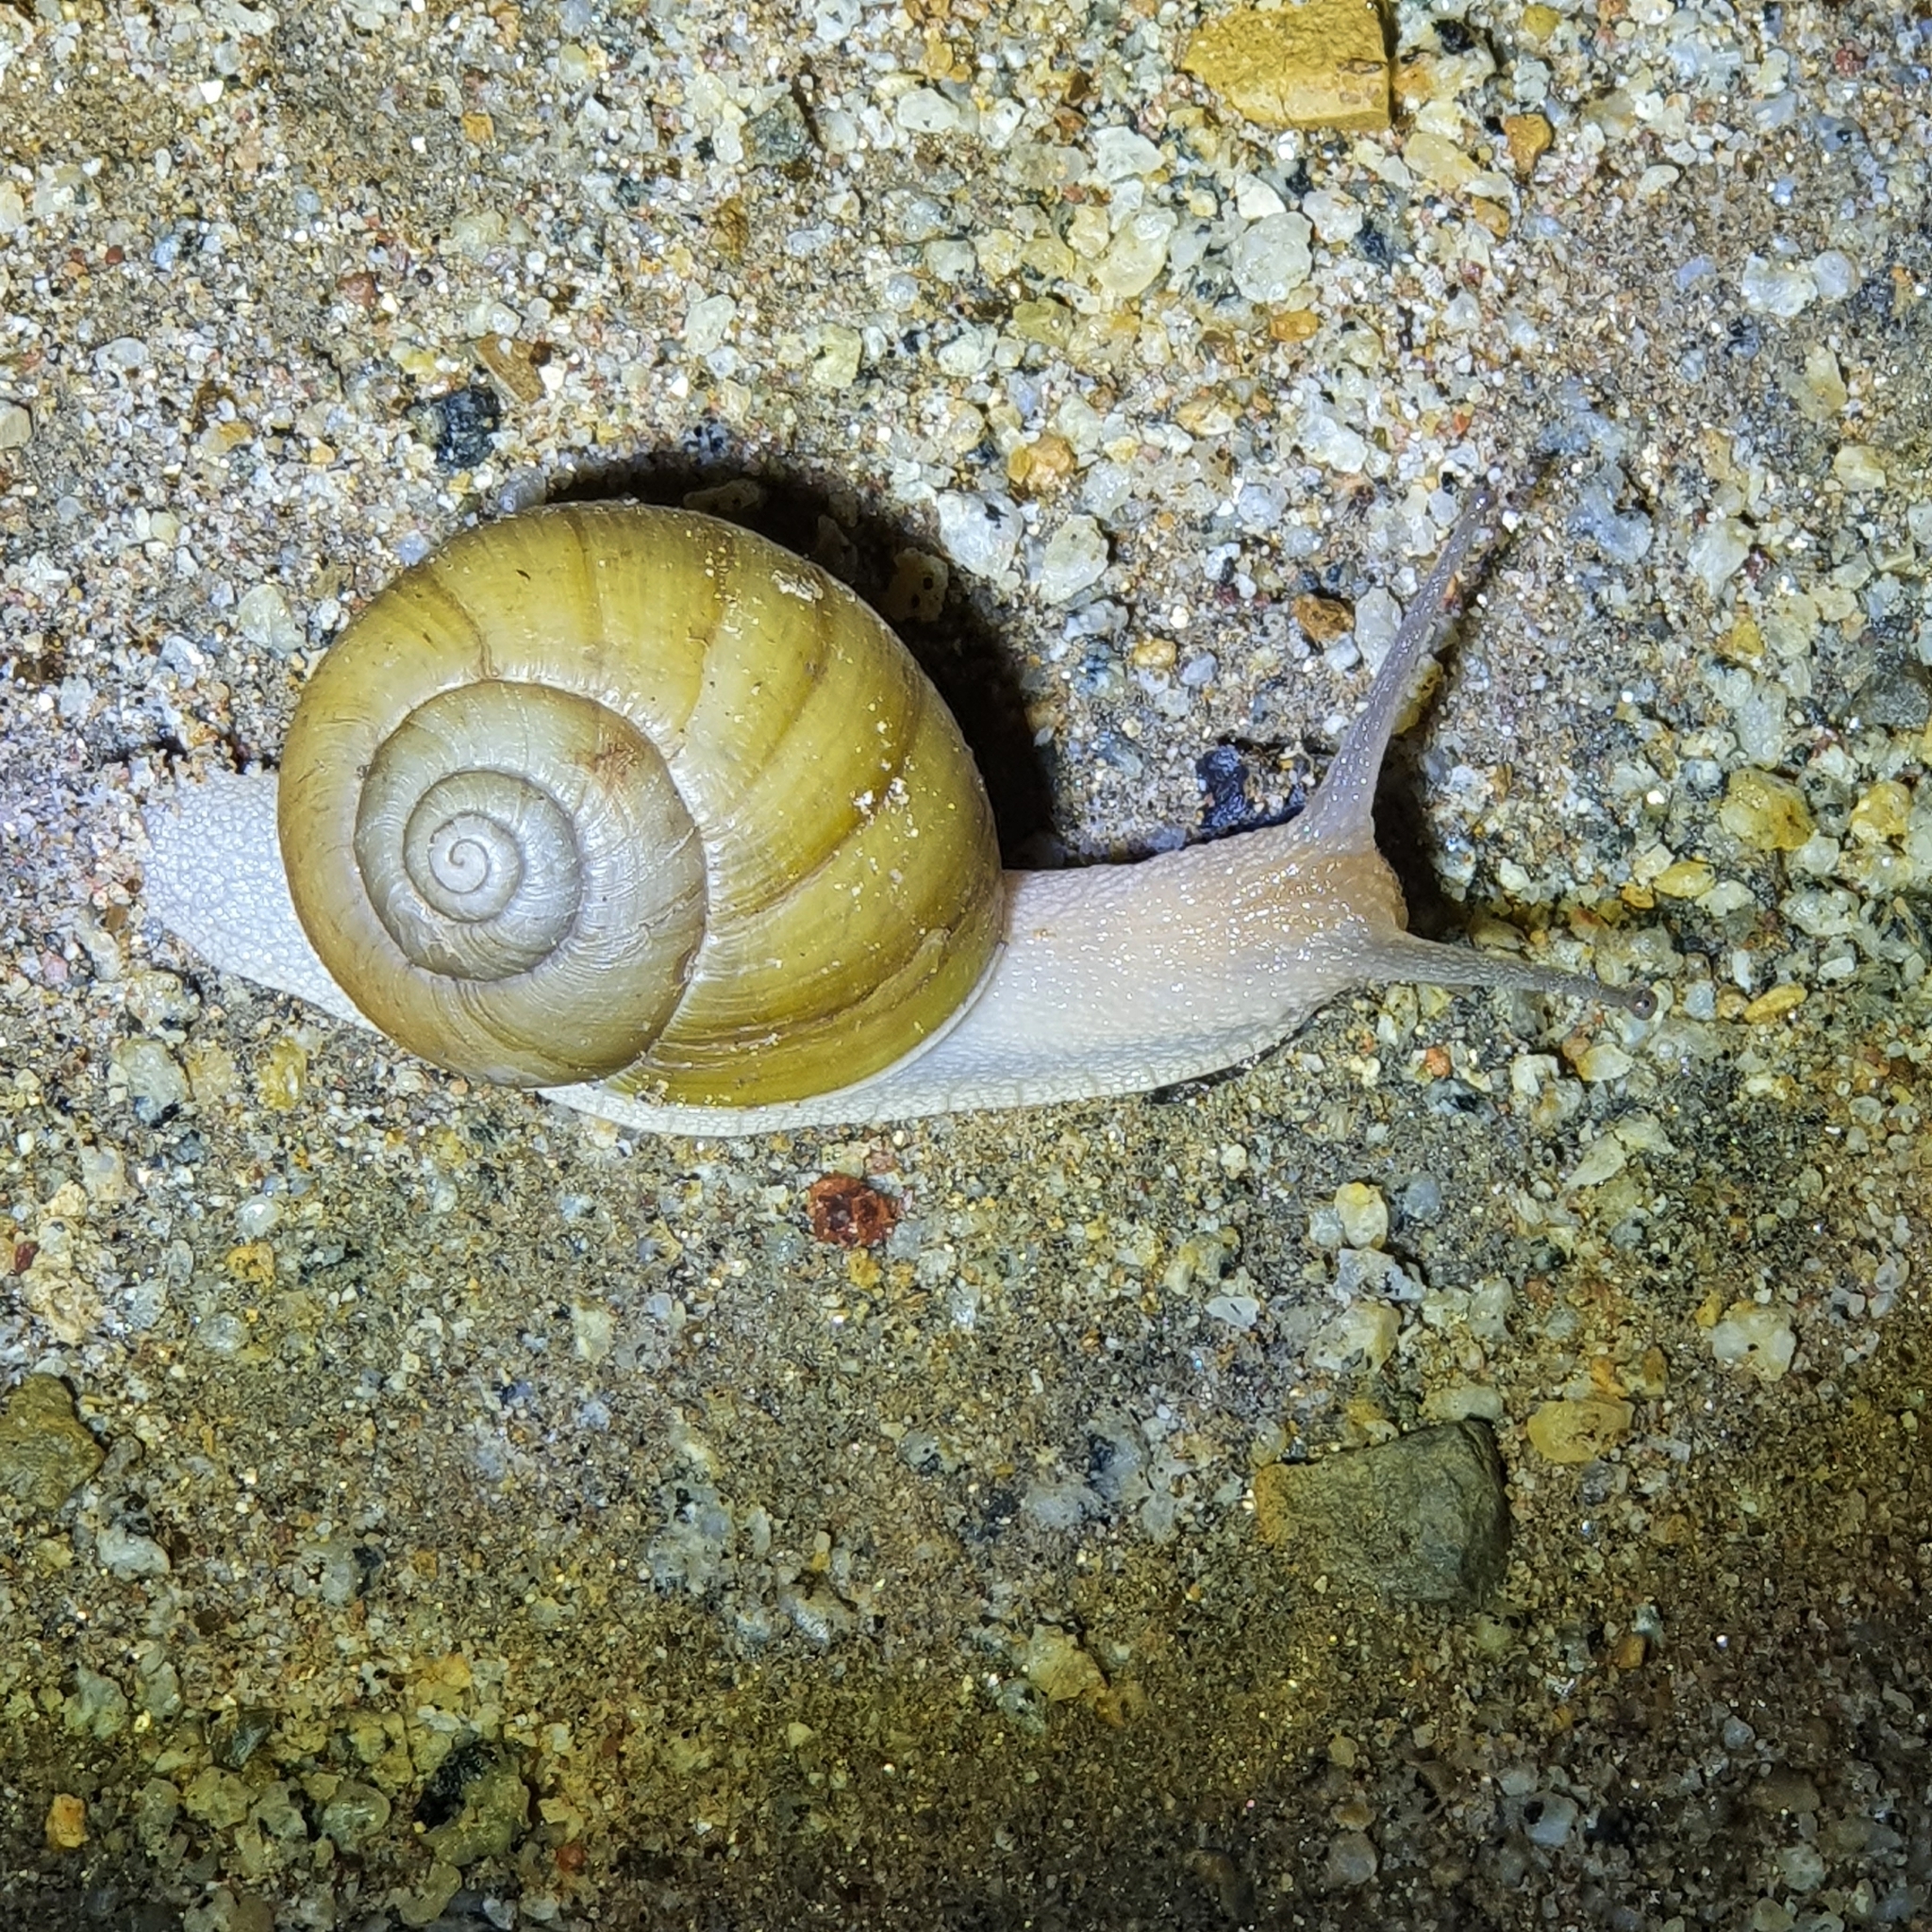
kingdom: Animalia
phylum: Mollusca
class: Gastropoda
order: Stylommatophora
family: Camaenidae
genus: Xanthomelon
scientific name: Xanthomelon pachystylum
